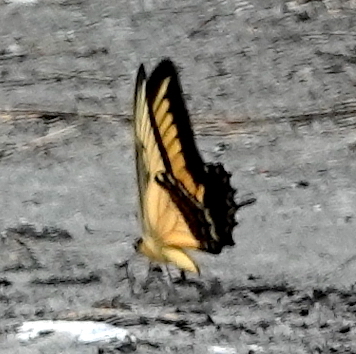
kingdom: Animalia
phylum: Arthropoda
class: Insecta
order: Lepidoptera
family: Papilionidae
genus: Papilio
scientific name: Papilio androgeus
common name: Androgeus swallowtail
